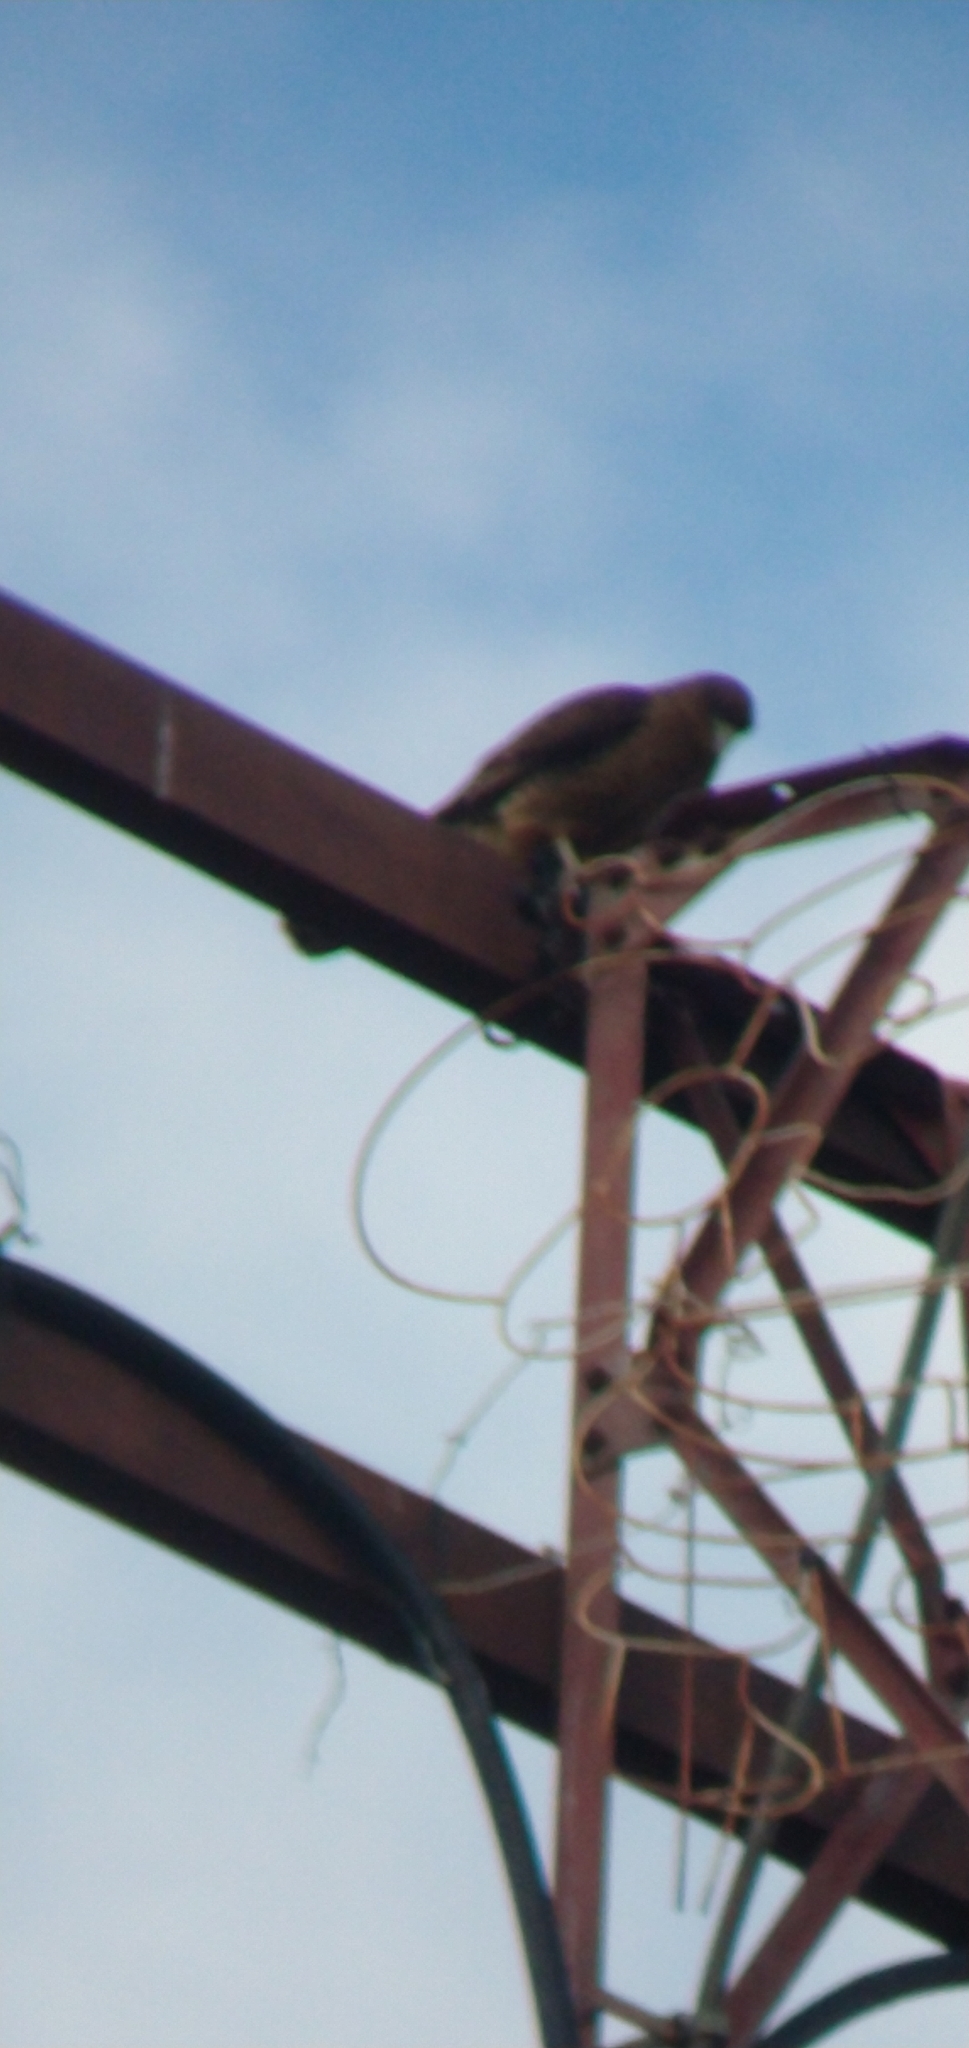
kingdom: Animalia
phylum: Chordata
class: Aves
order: Falconiformes
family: Falconidae
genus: Daptrius
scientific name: Daptrius
